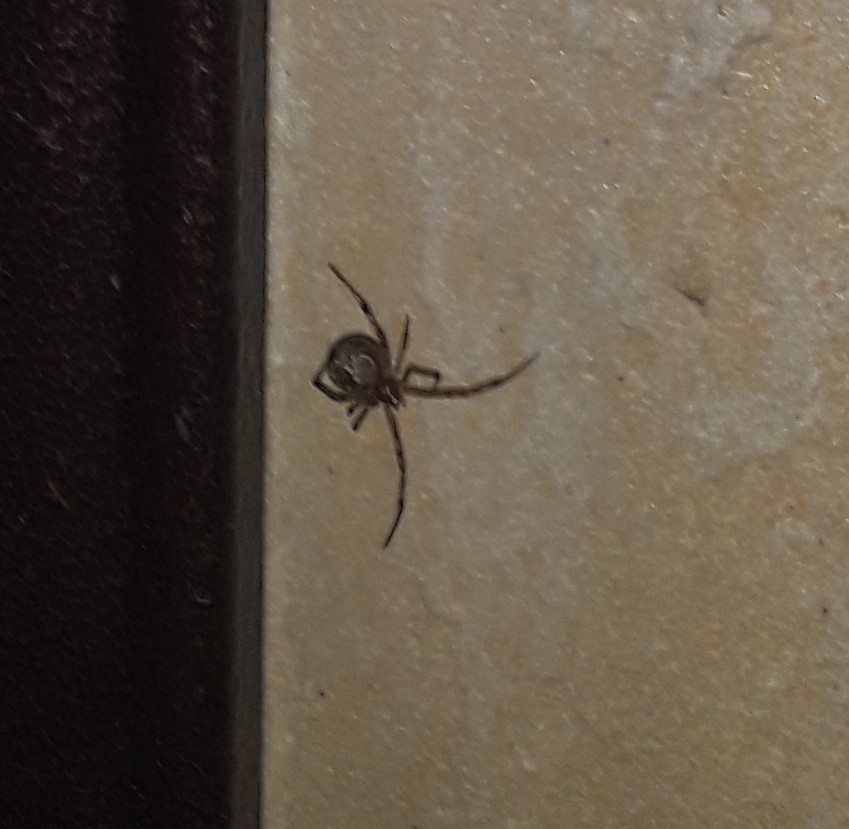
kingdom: Animalia
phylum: Arthropoda
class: Arachnida
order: Araneae
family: Theridiidae
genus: Parasteatoda
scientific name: Parasteatoda
